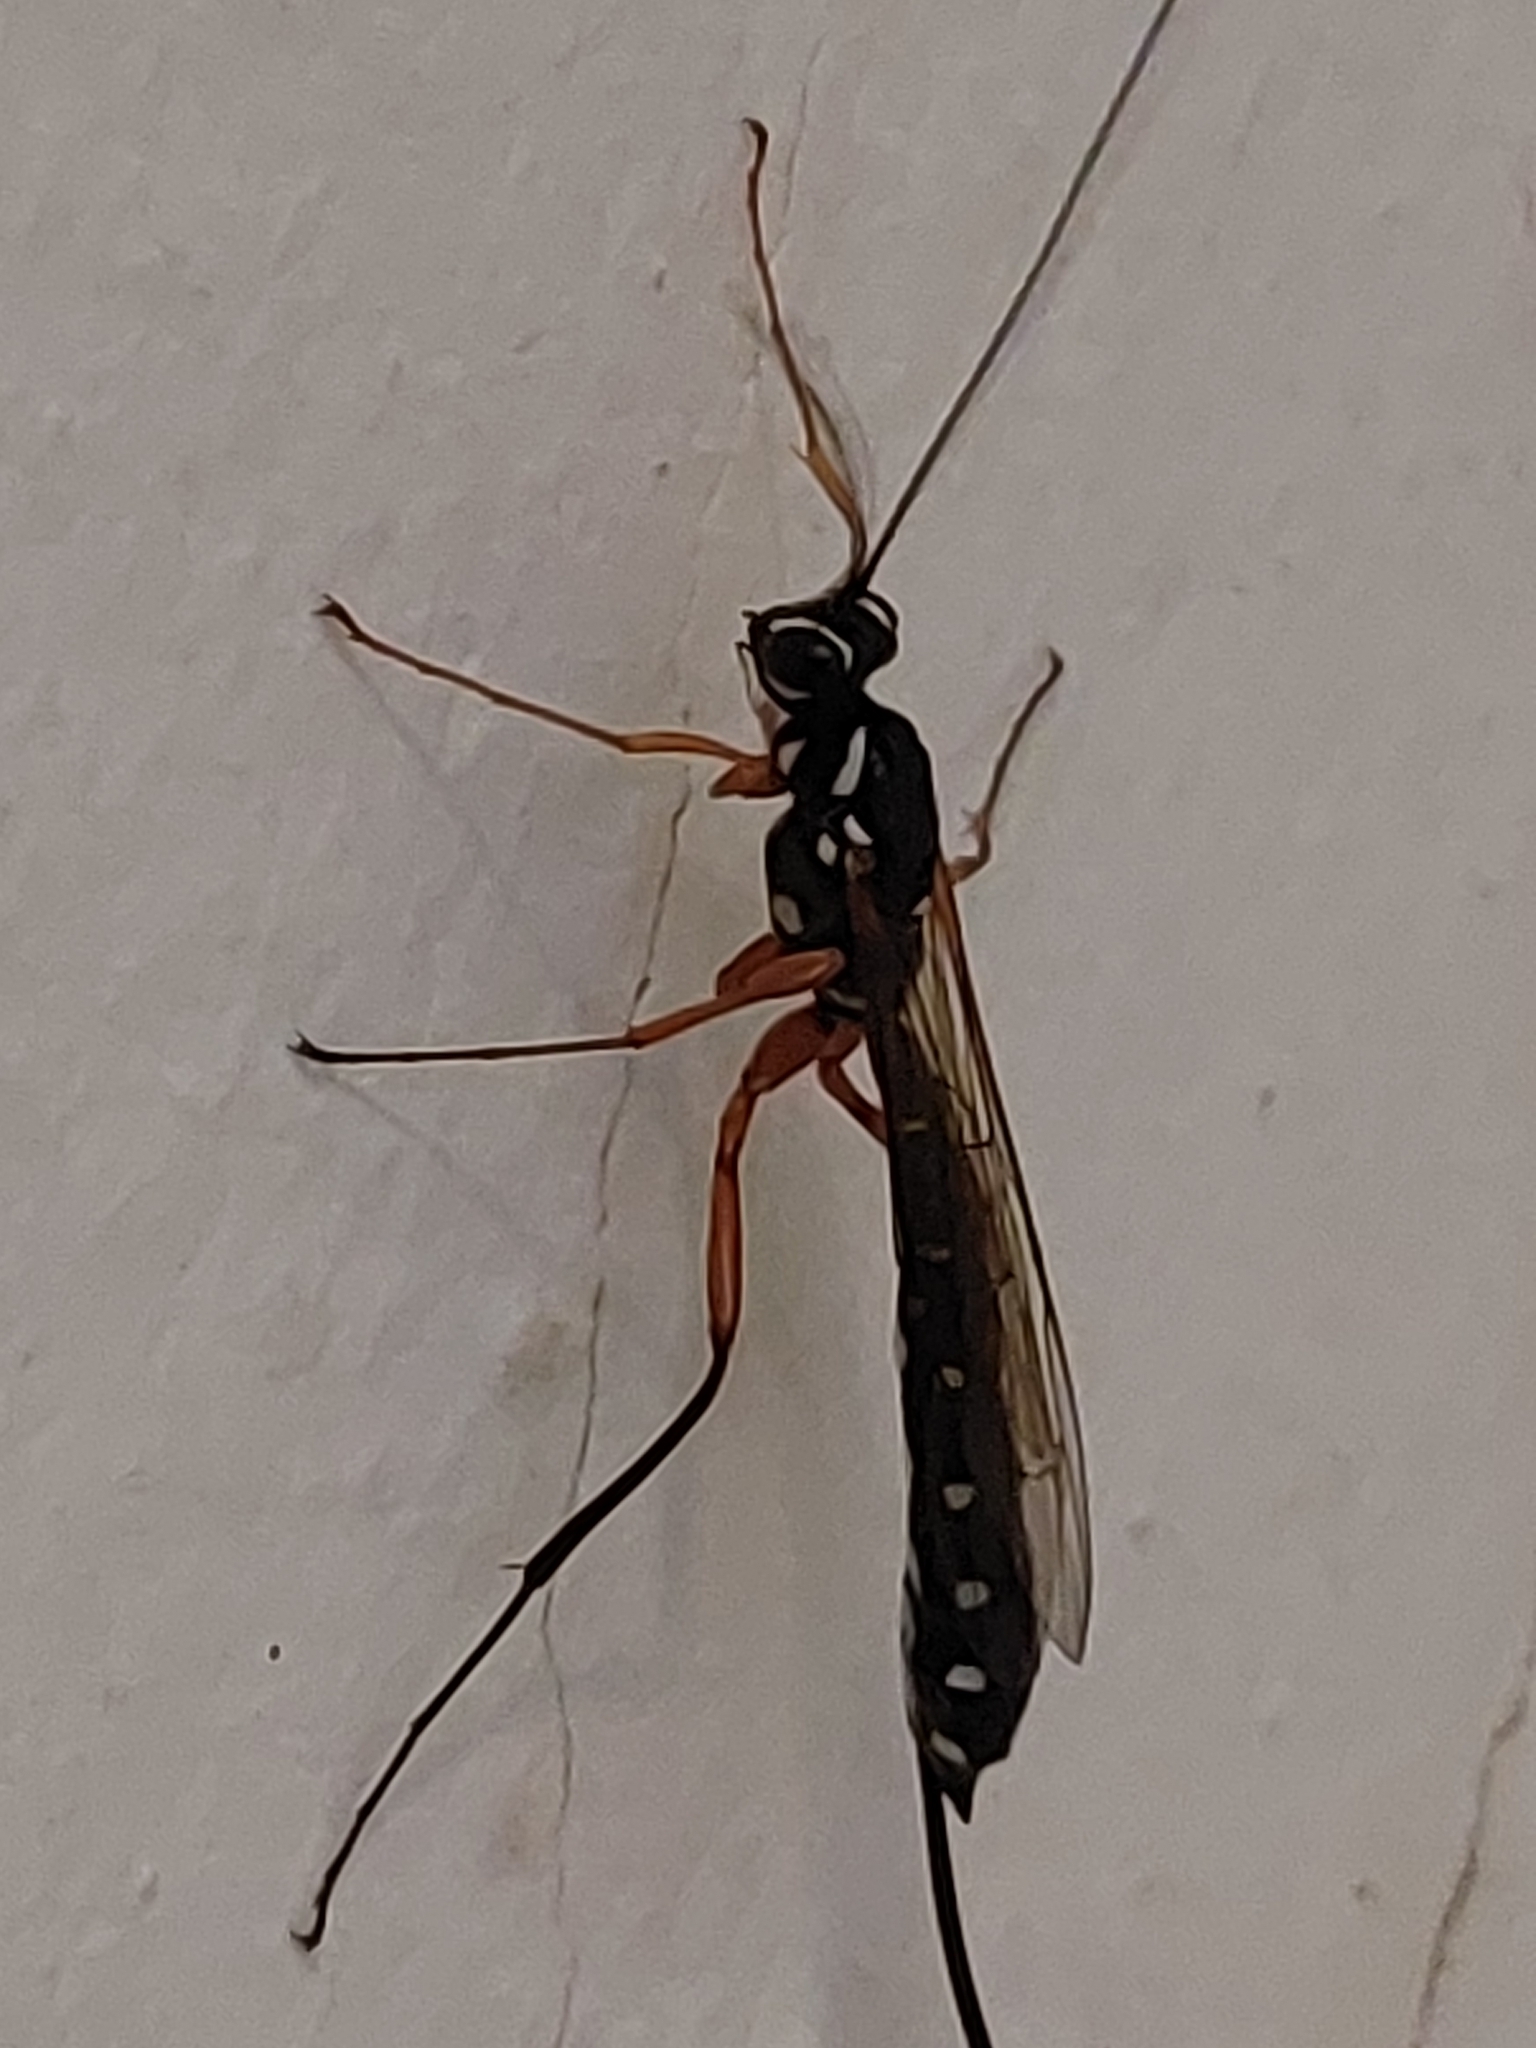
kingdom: Animalia
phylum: Arthropoda
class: Insecta
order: Hymenoptera
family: Ichneumonidae
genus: Rhyssa
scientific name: Rhyssa persuasoria
